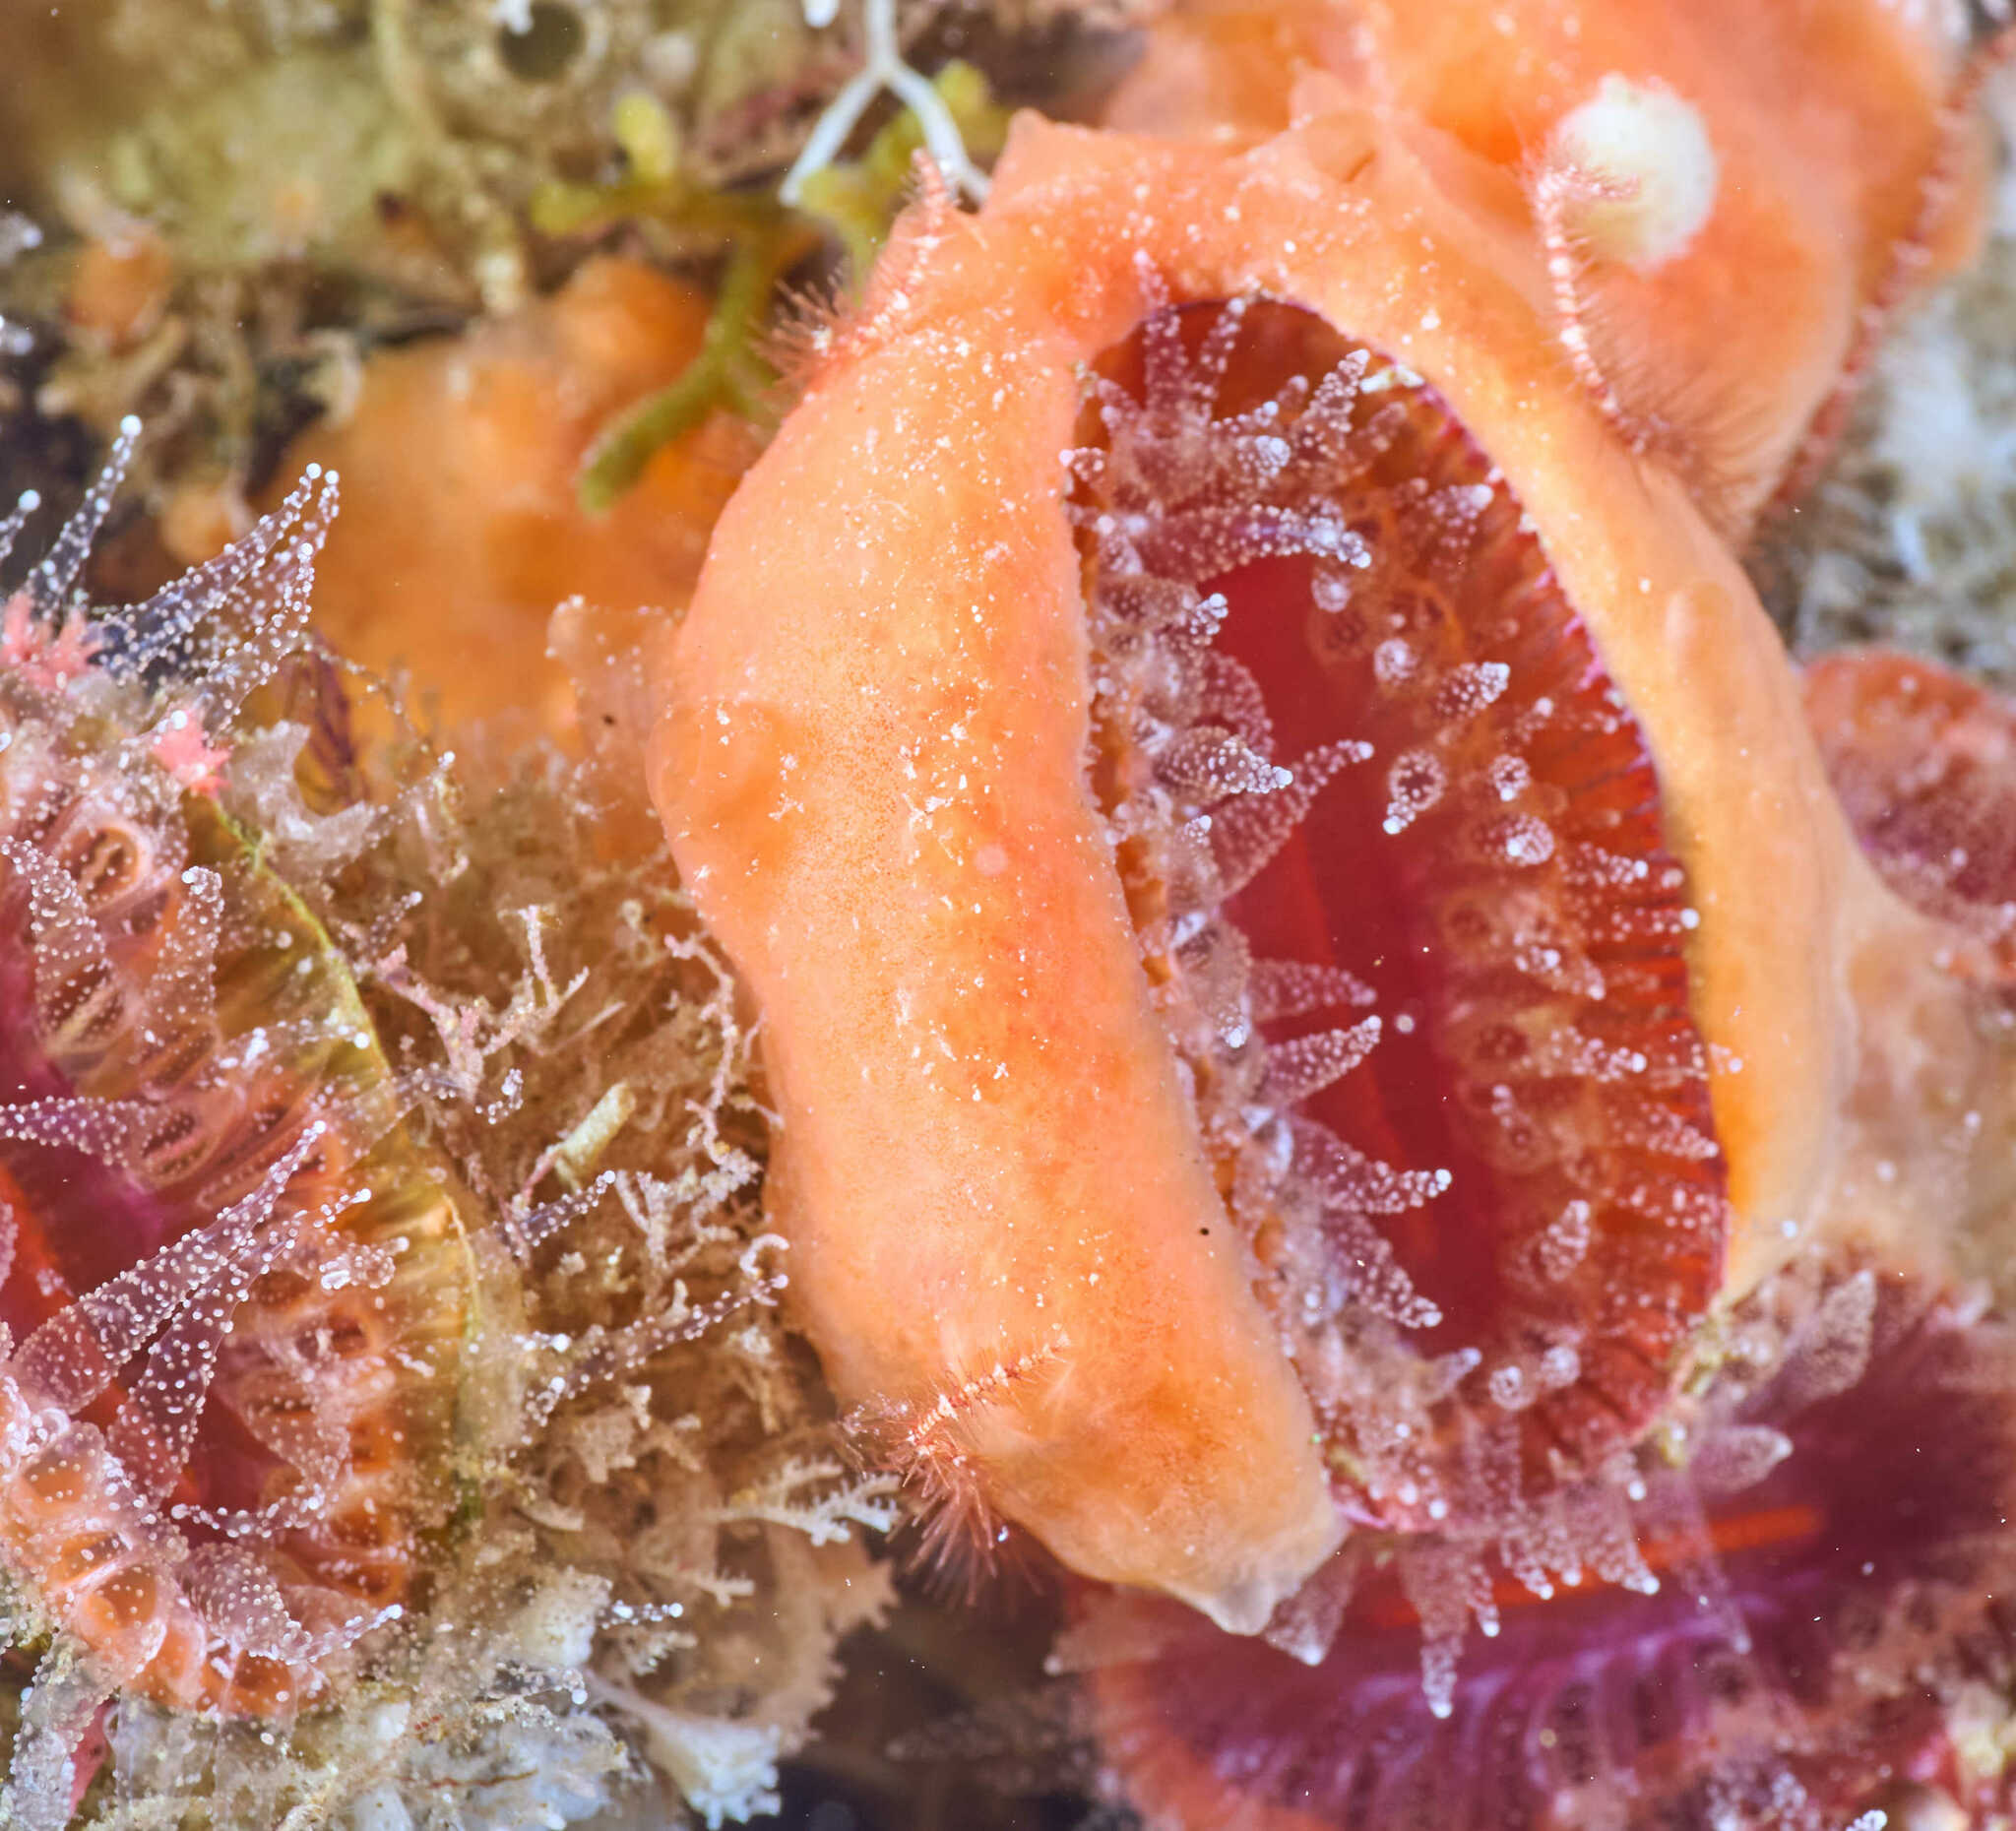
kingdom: Animalia
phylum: Cnidaria
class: Anthozoa
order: Scleractinia
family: Flabellidae
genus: Monomyces
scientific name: Monomyces rubrum
